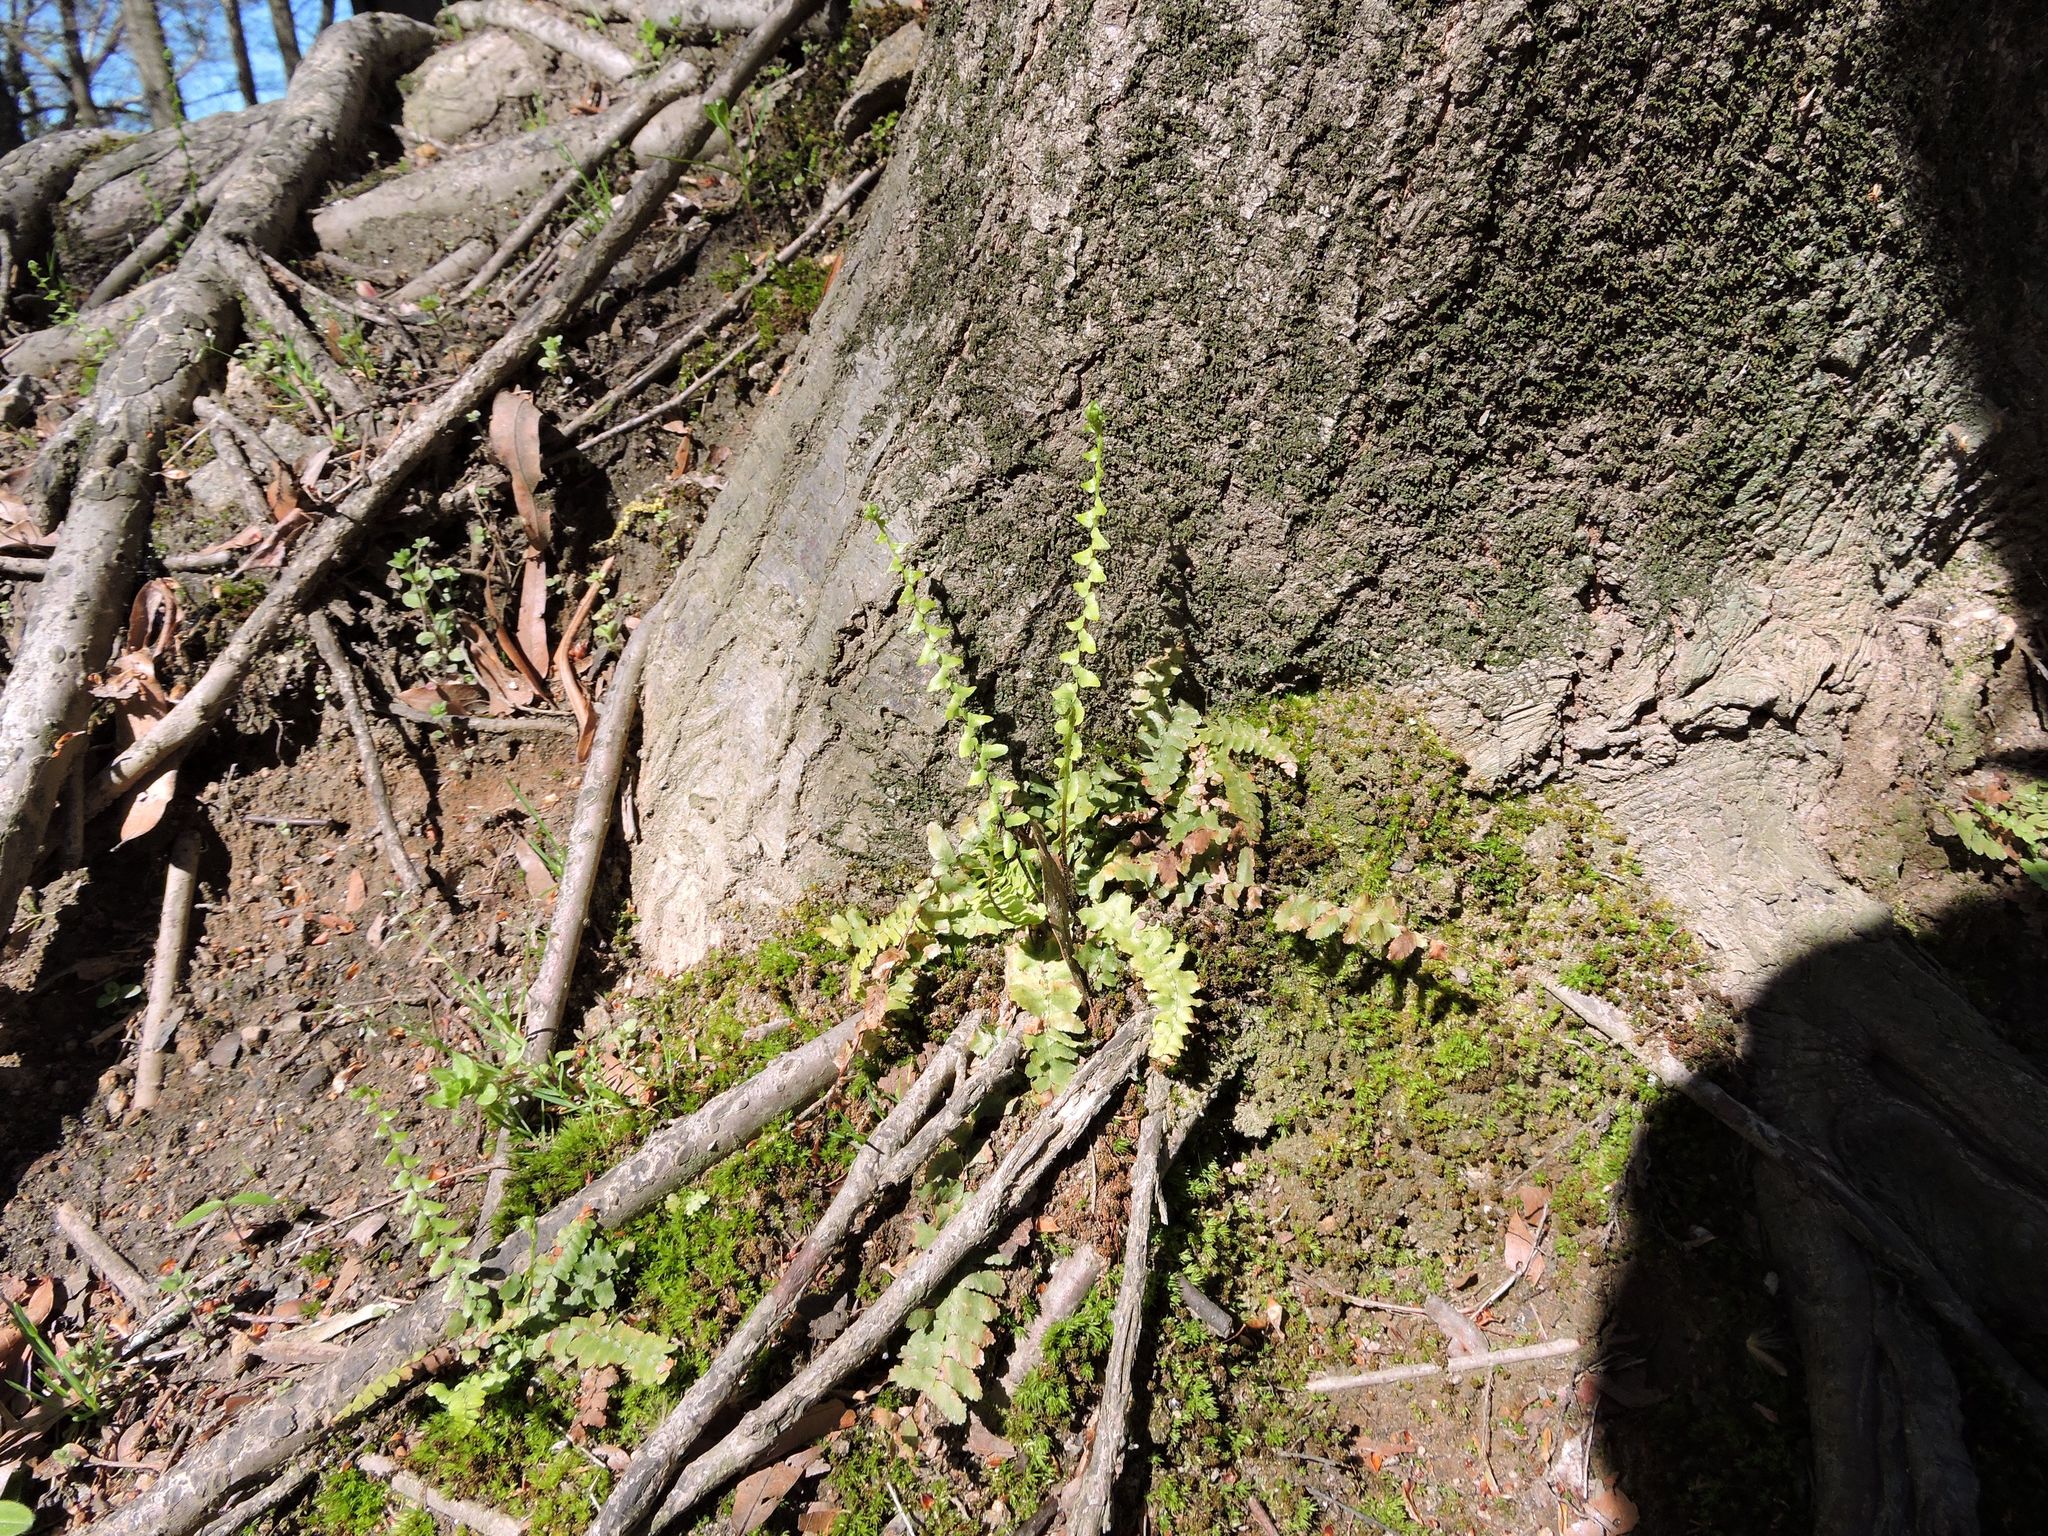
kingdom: Plantae
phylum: Tracheophyta
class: Polypodiopsida
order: Polypodiales
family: Aspleniaceae
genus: Asplenium
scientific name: Asplenium platyneuron
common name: Ebony spleenwort
